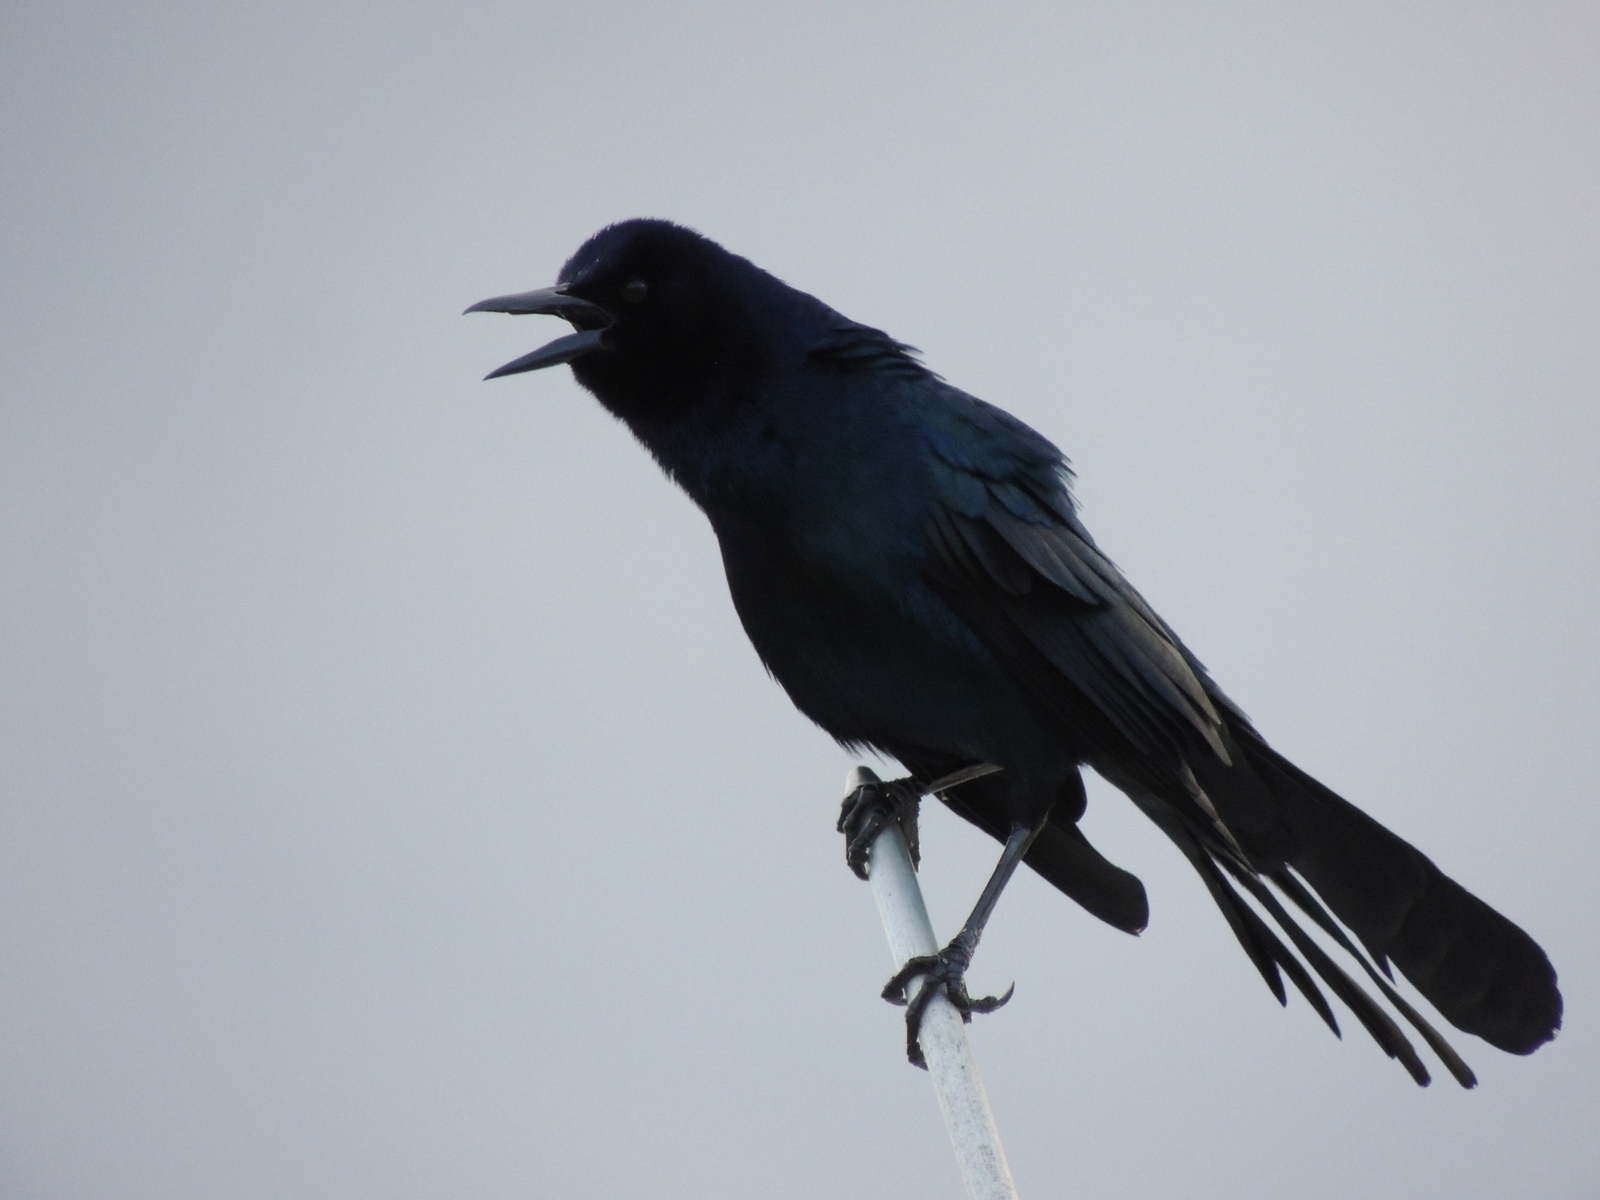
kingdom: Animalia
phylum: Chordata
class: Aves
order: Passeriformes
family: Icteridae
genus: Quiscalus
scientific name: Quiscalus major
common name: Boat-tailed grackle
